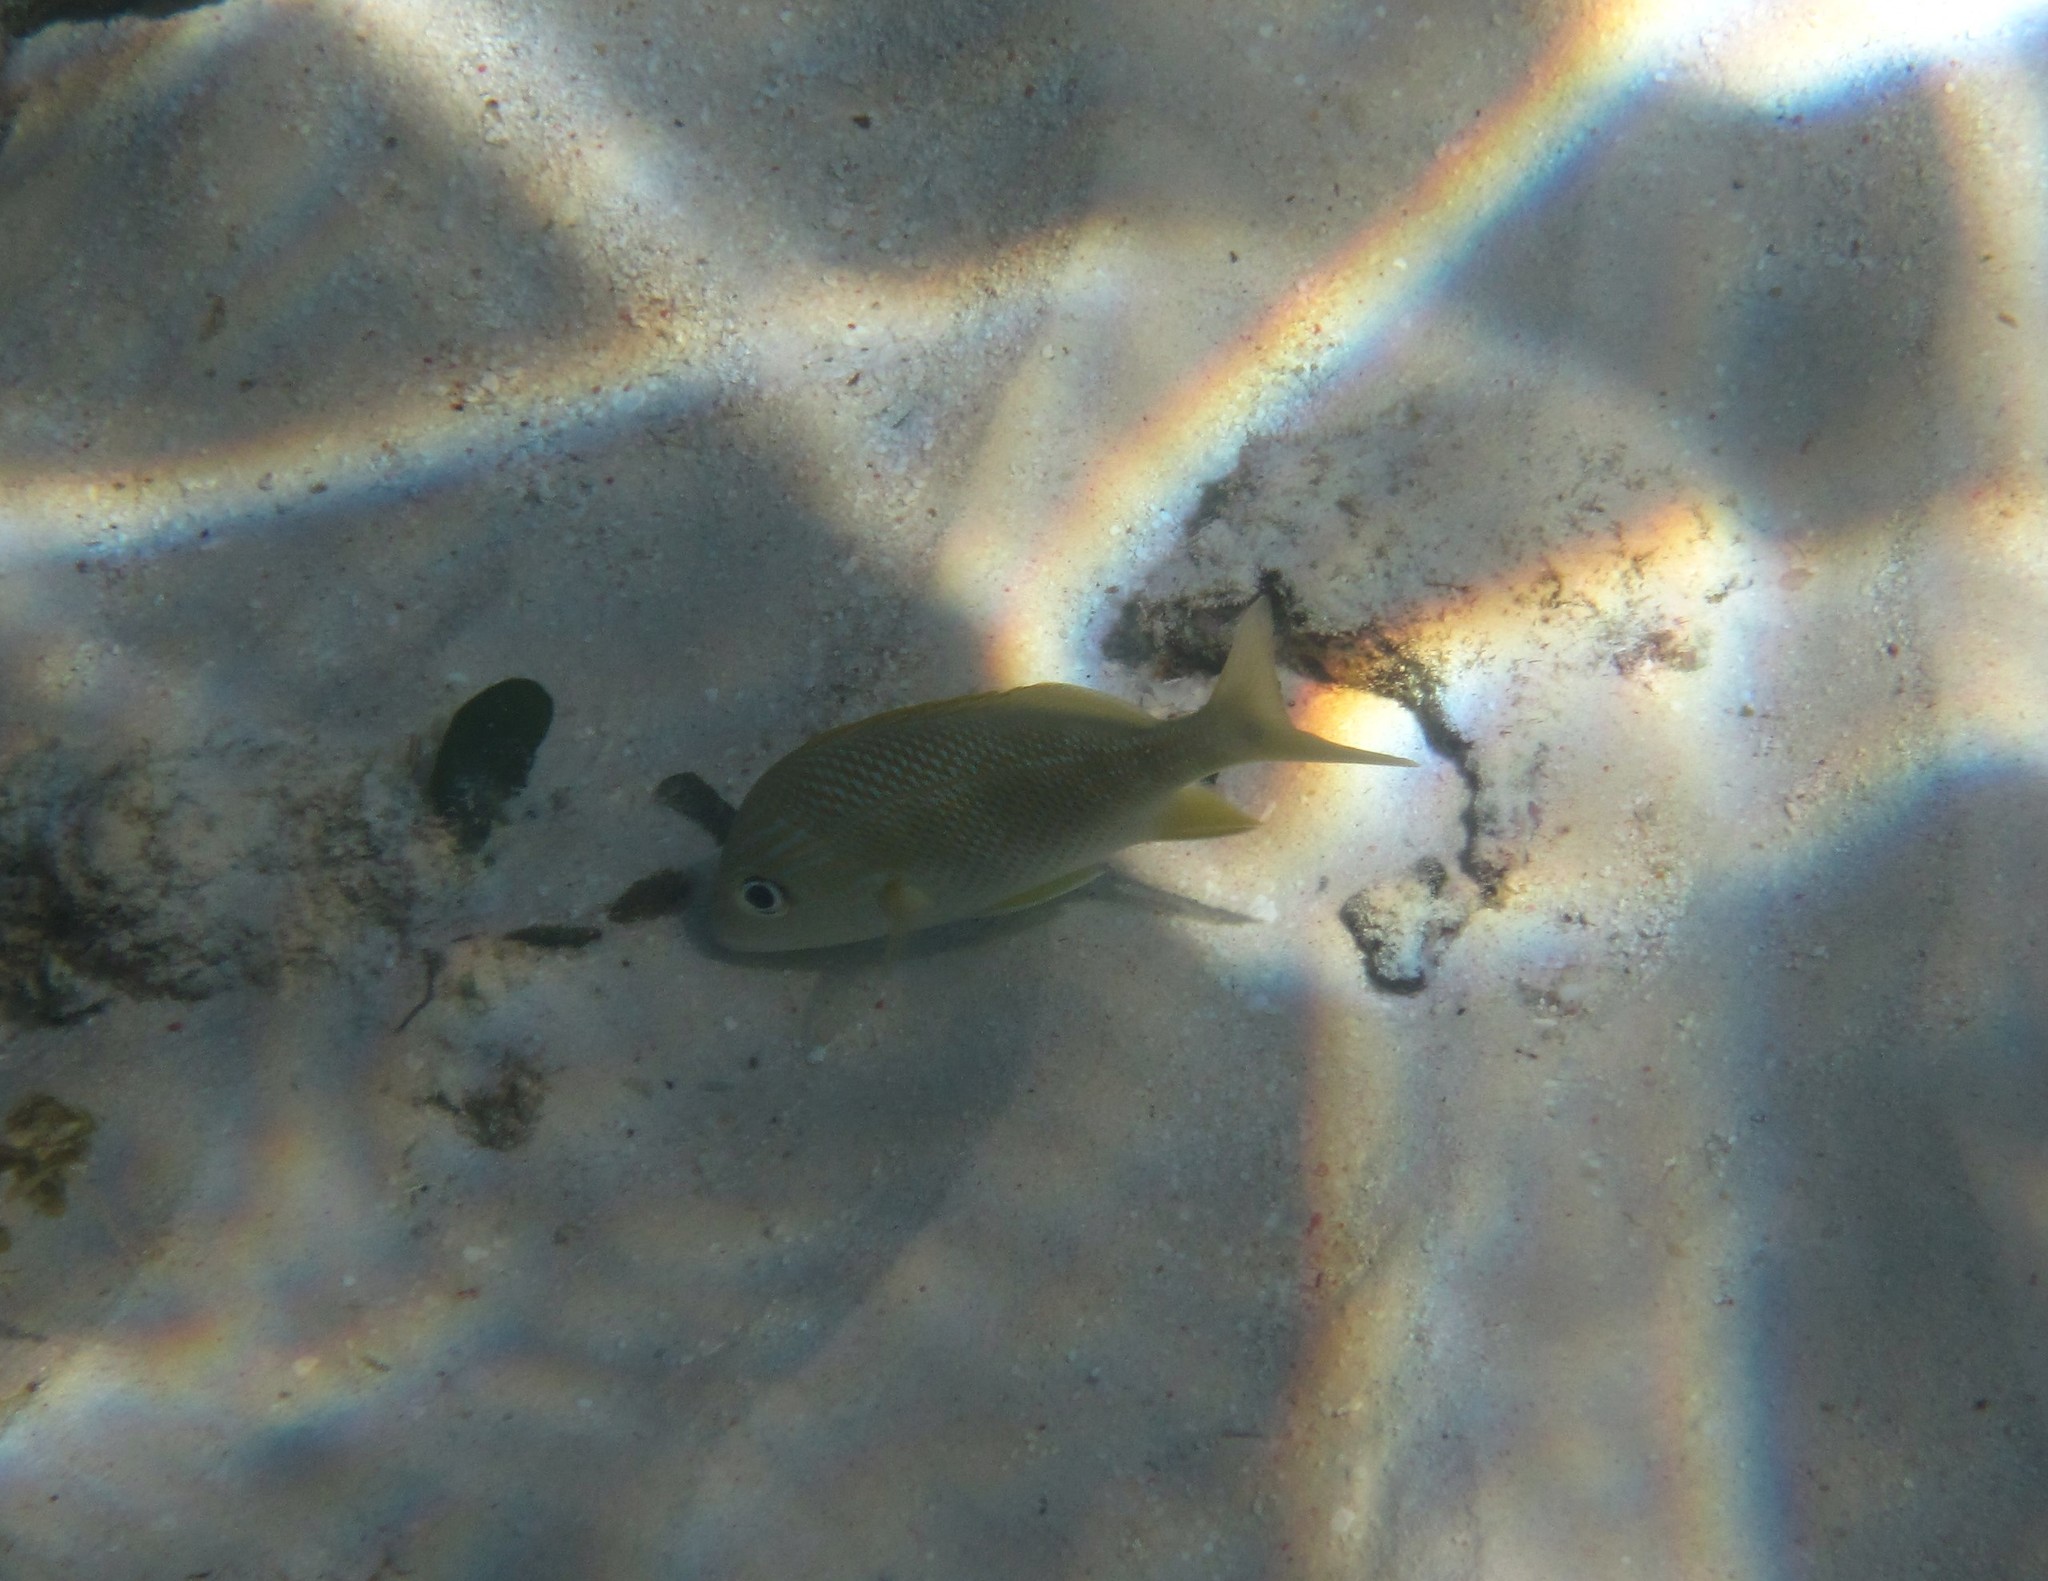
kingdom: Animalia
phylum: Chordata
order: Perciformes
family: Haemulidae
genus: Haemulon
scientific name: Haemulon plumierii
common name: White grunt
